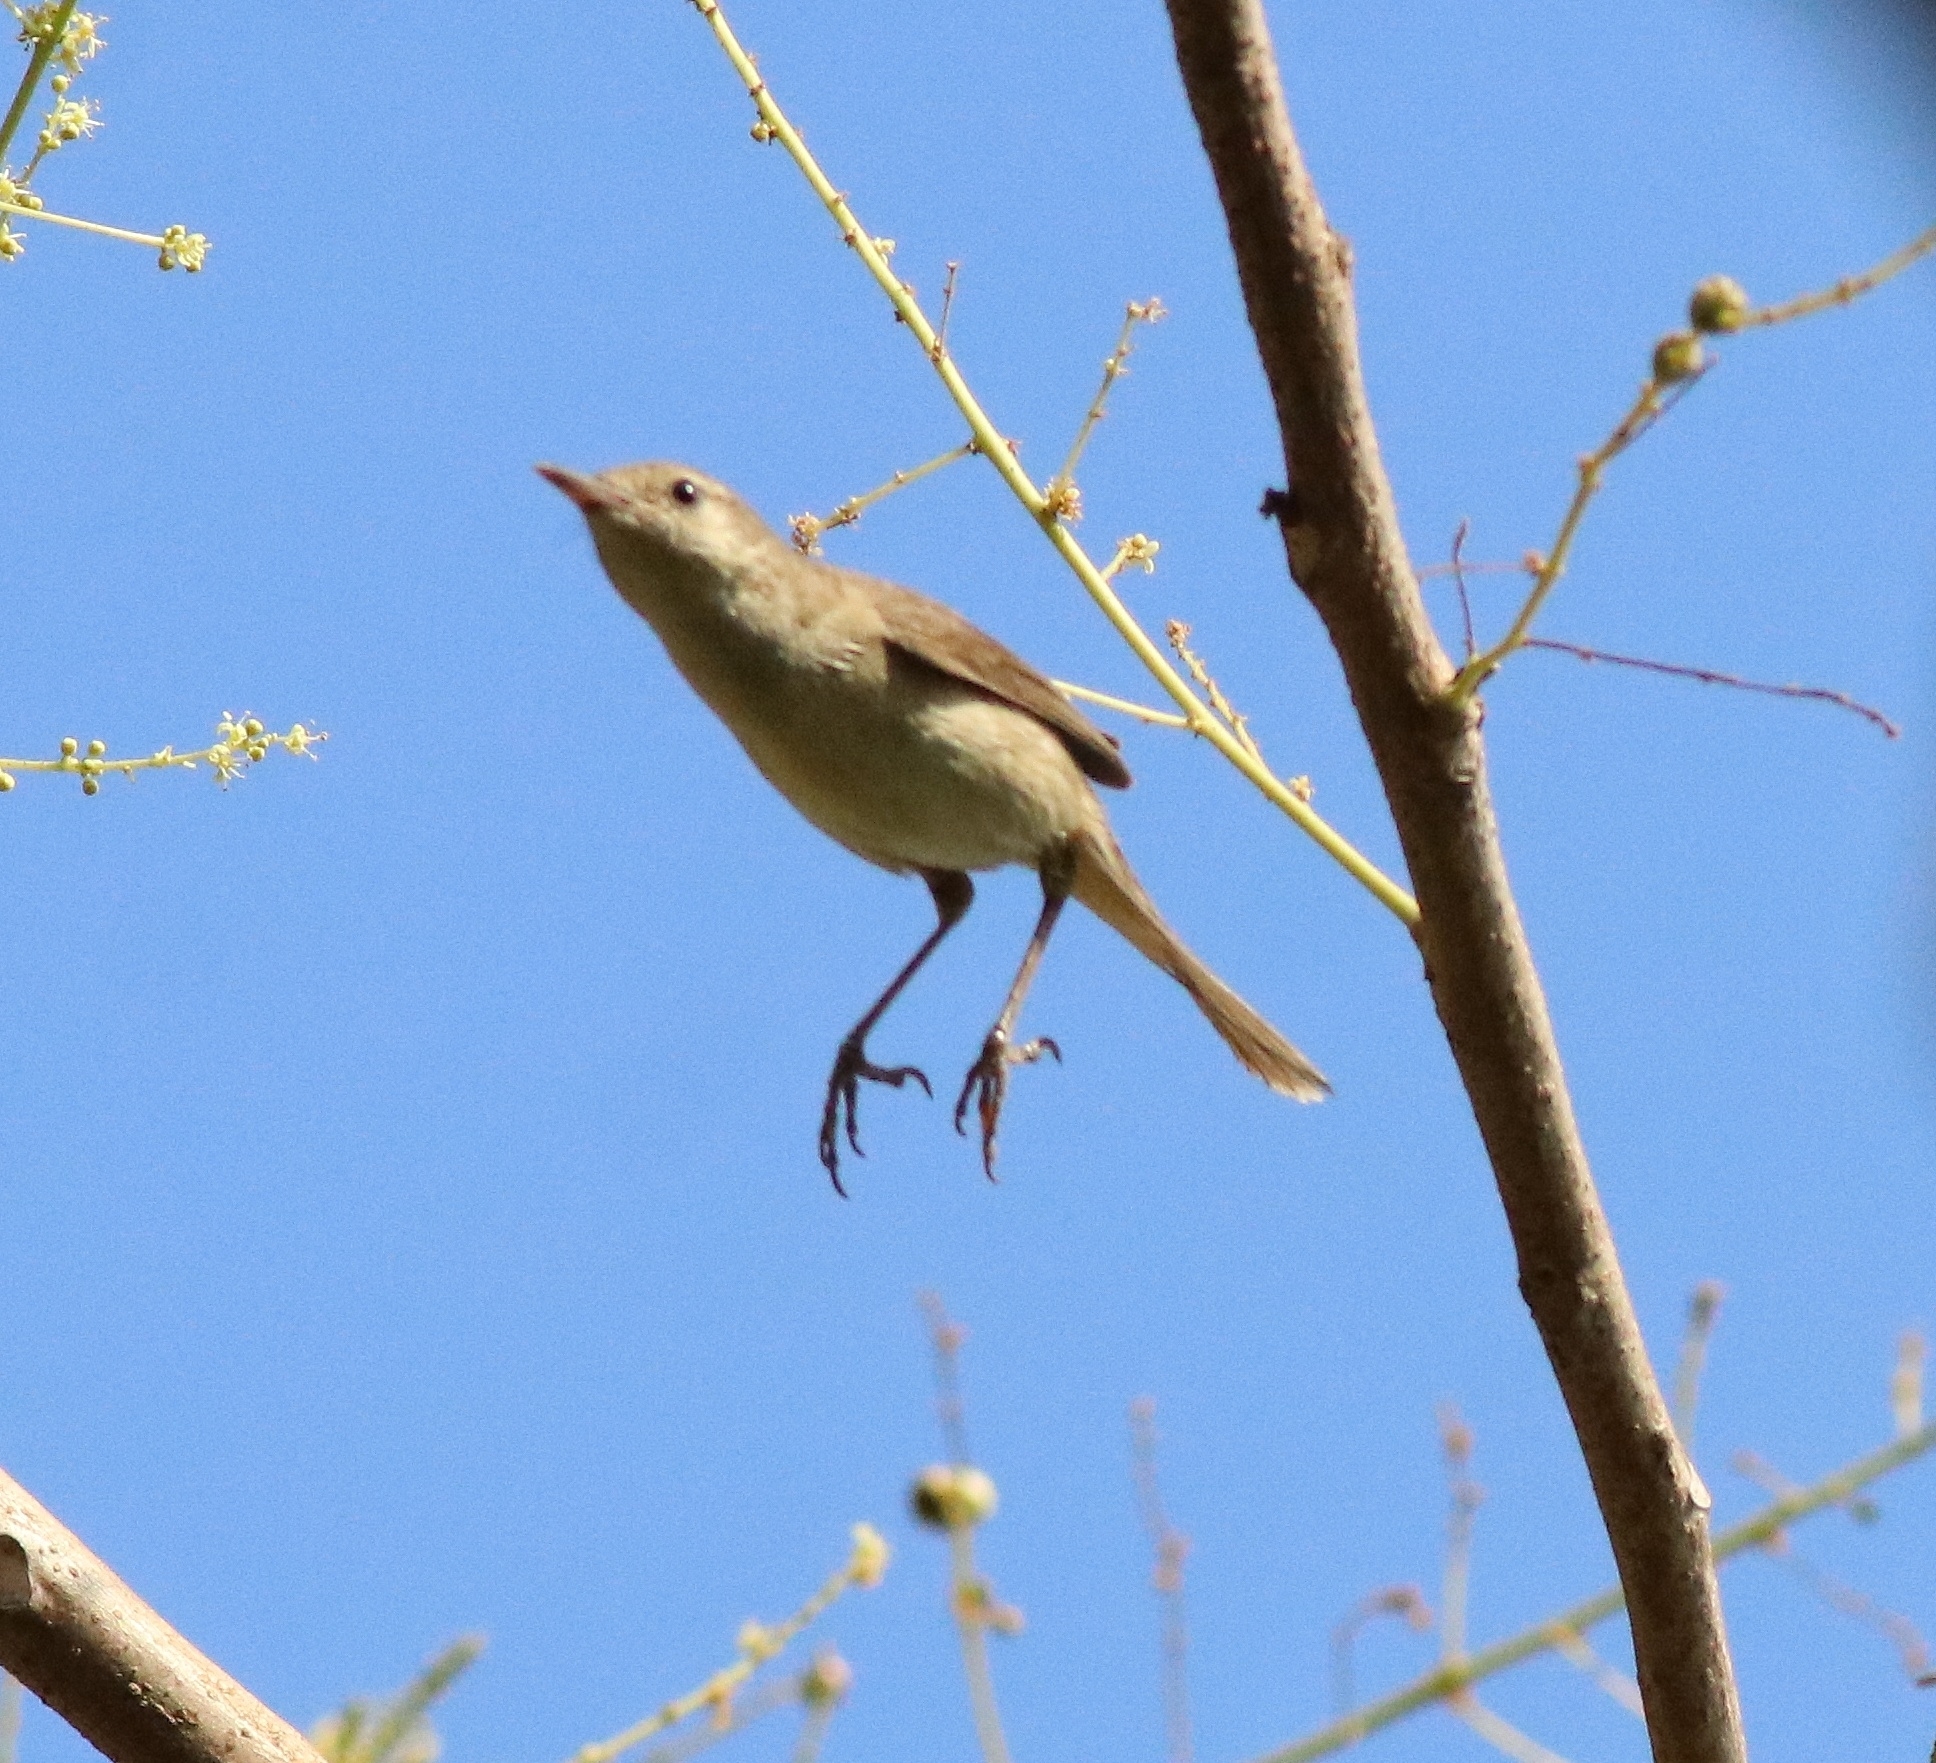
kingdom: Animalia
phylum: Chordata
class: Aves
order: Passeriformes
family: Acrocephalidae
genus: Acrocephalus
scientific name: Acrocephalus dumetorum
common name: Blyth's reed warbler
